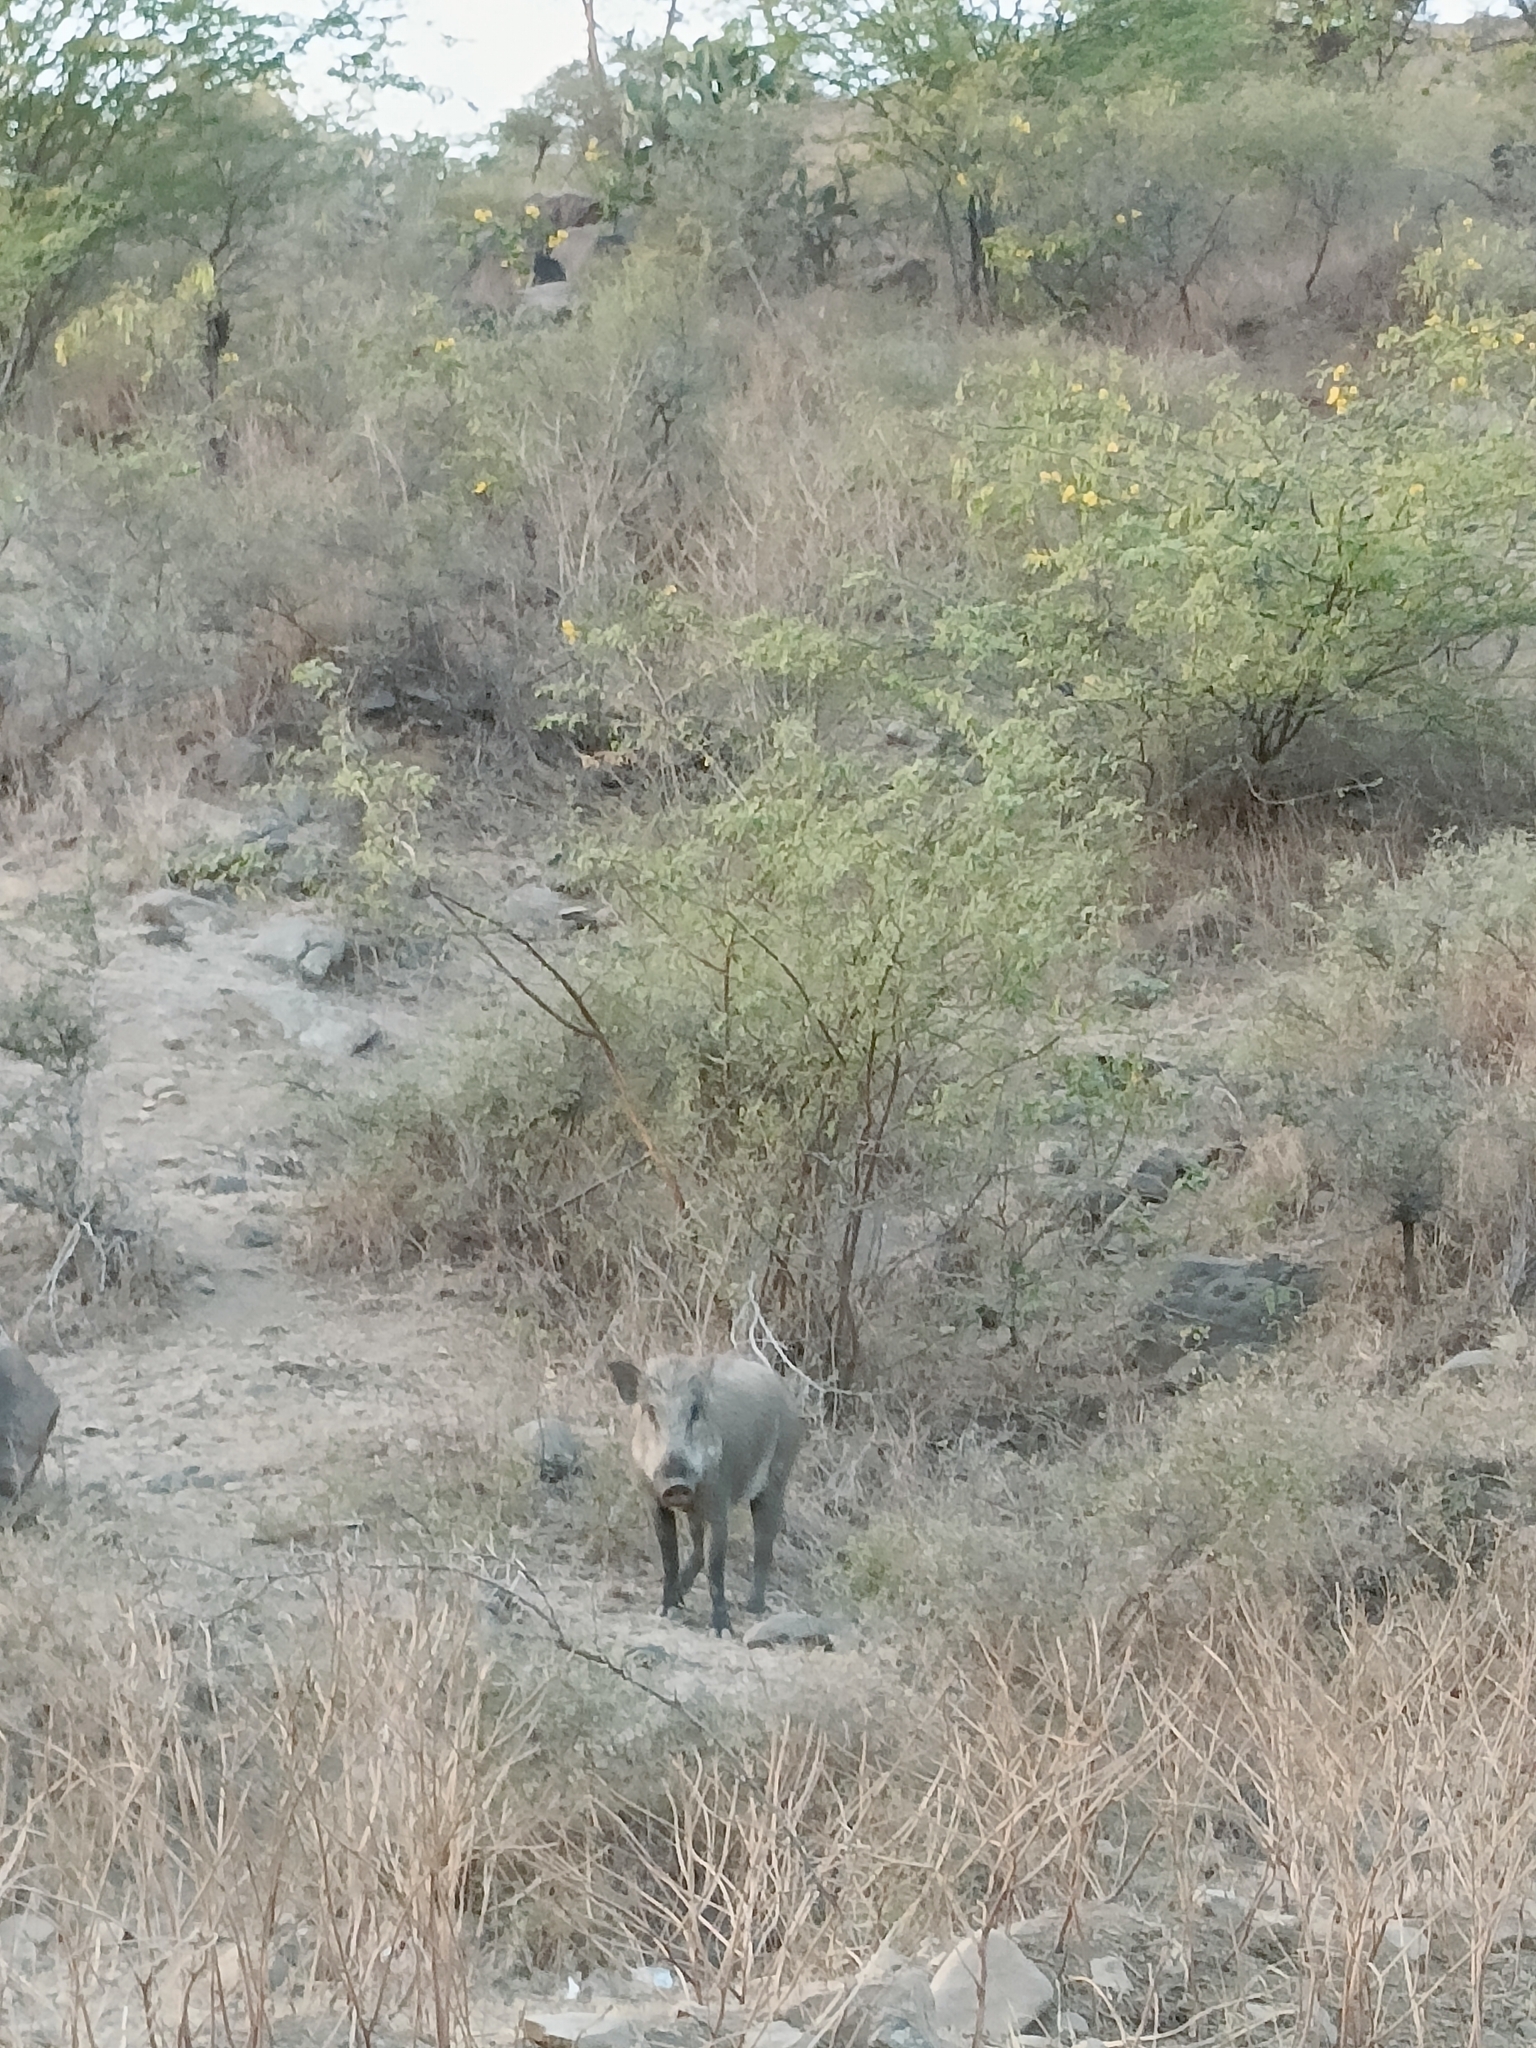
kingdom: Animalia
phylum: Chordata
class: Mammalia
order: Artiodactyla
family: Suidae
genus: Sus
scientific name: Sus scrofa
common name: Wild boar
